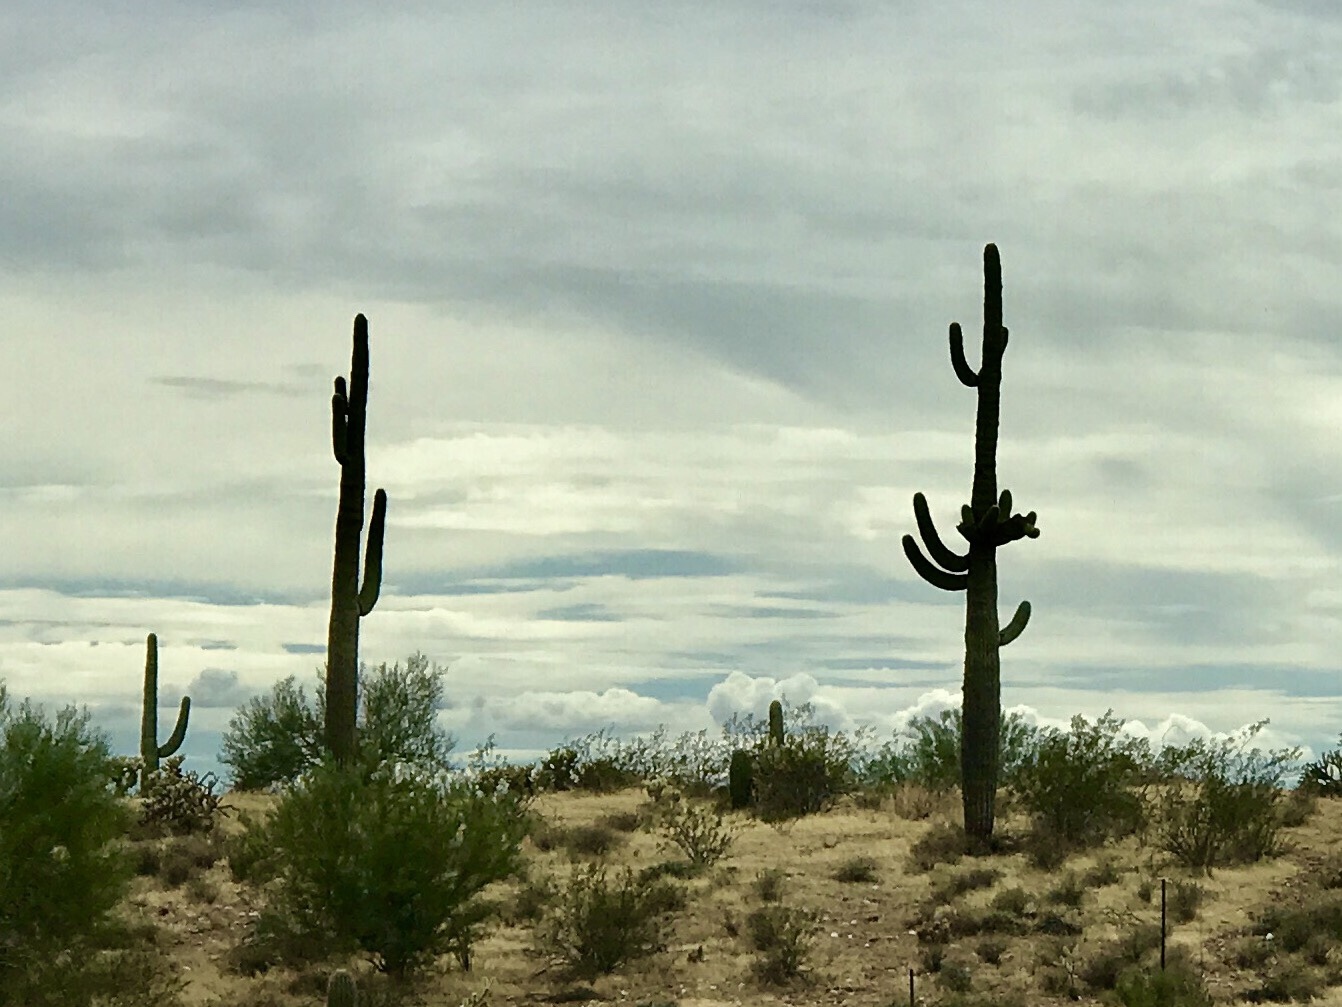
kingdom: Plantae
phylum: Tracheophyta
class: Magnoliopsida
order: Caryophyllales
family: Cactaceae
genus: Carnegiea
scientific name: Carnegiea gigantea
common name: Saguaro
